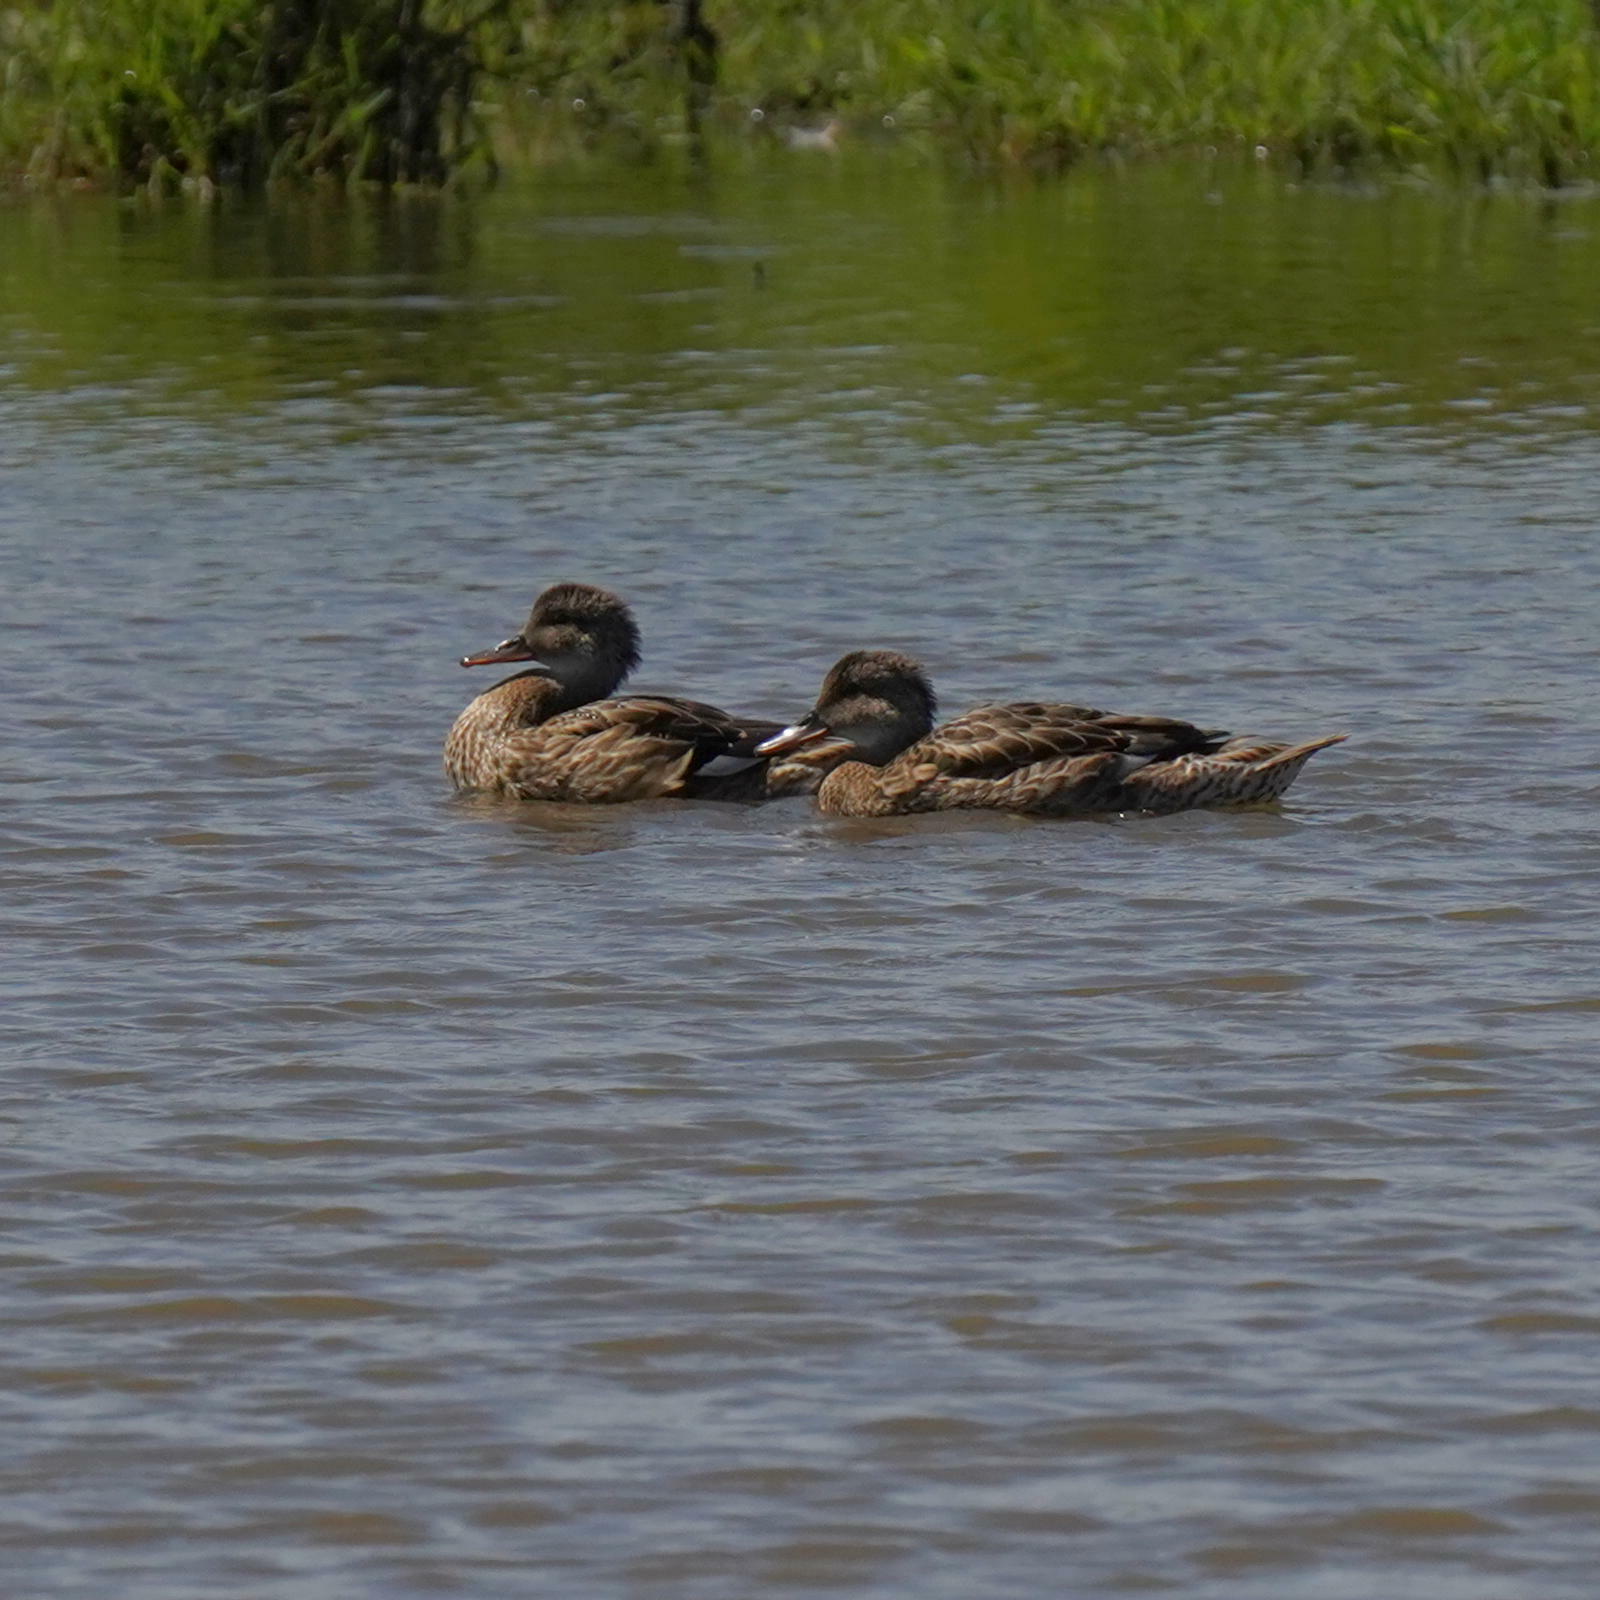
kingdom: Animalia
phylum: Chordata
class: Aves
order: Anseriformes
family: Anatidae
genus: Mareca
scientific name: Mareca strepera
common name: Gadwall
